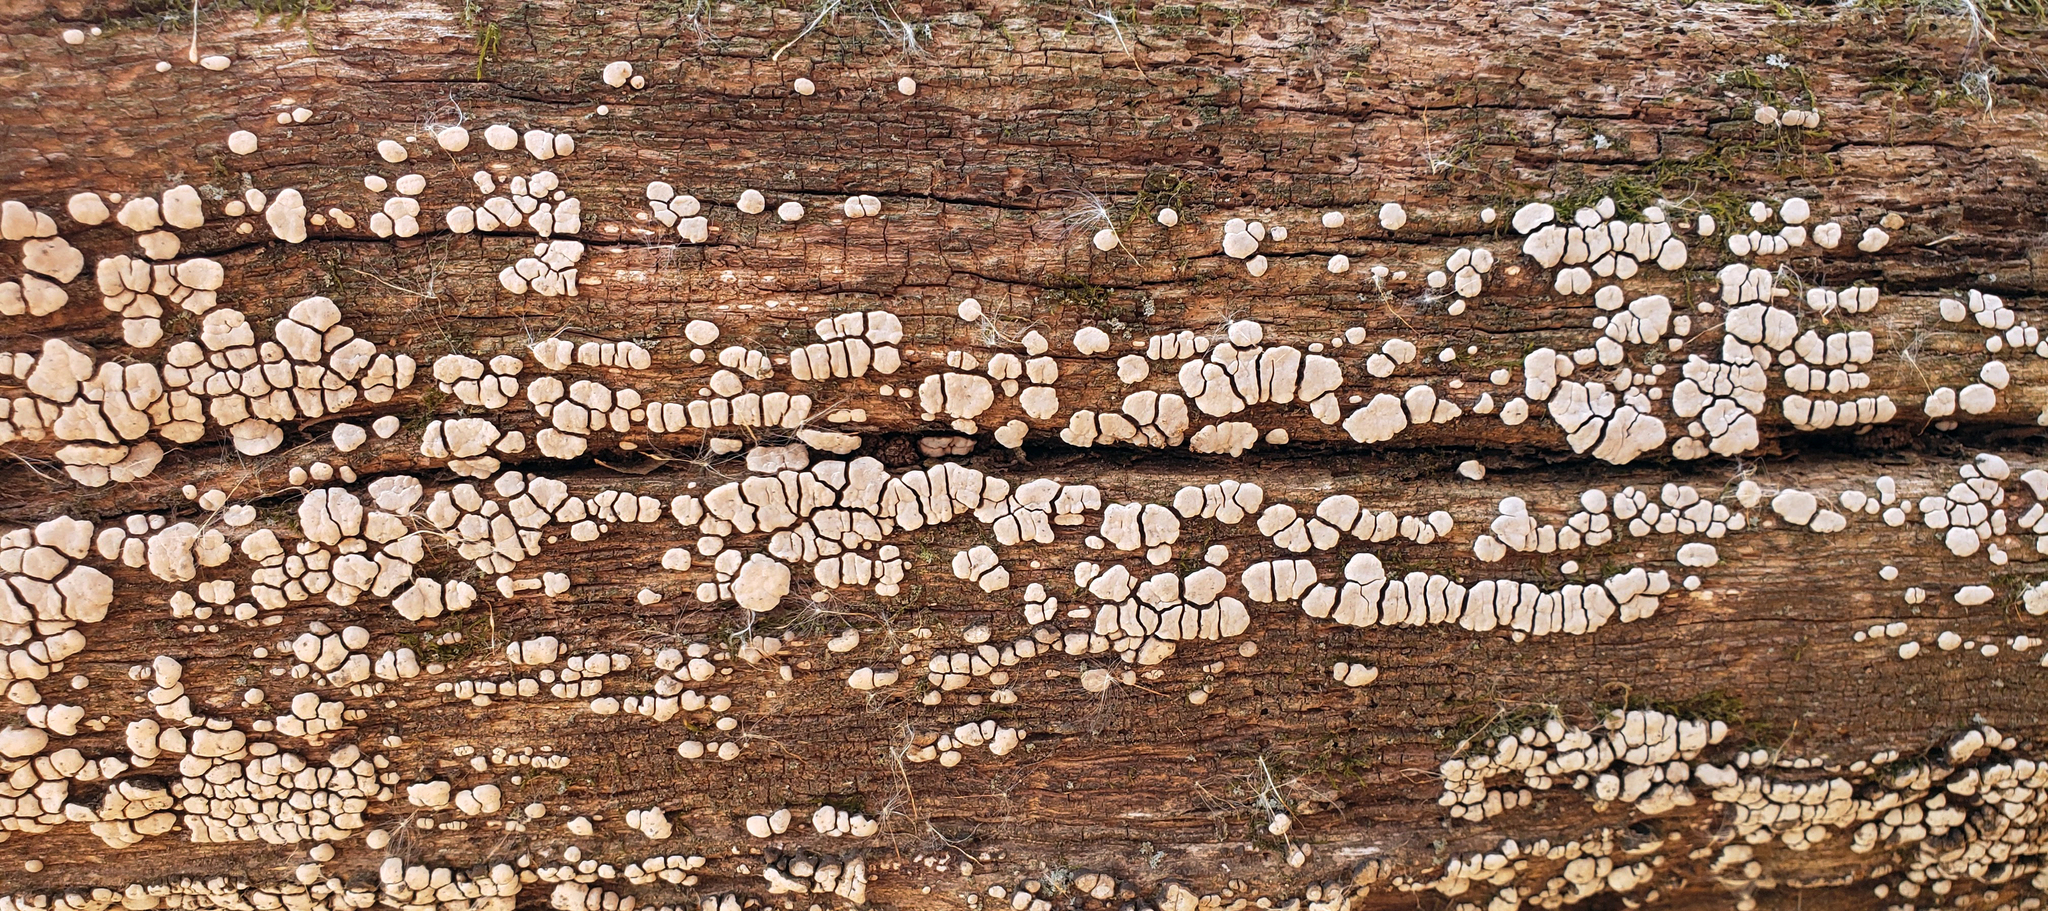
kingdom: Fungi
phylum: Basidiomycota
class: Agaricomycetes
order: Russulales
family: Stereaceae
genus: Xylobolus
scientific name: Xylobolus frustulatus
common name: Ceramic parchment
